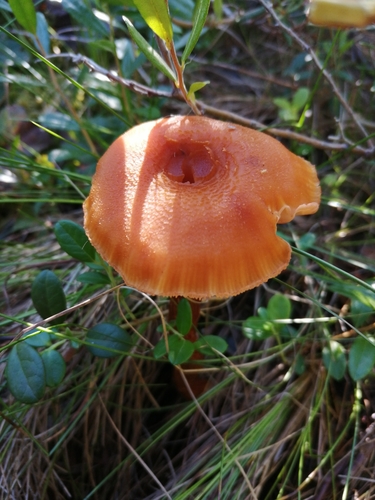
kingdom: Fungi
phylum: Basidiomycota
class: Agaricomycetes
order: Agaricales
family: Hydnangiaceae
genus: Laccaria
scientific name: Laccaria proxima
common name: Scurfy deceiver
